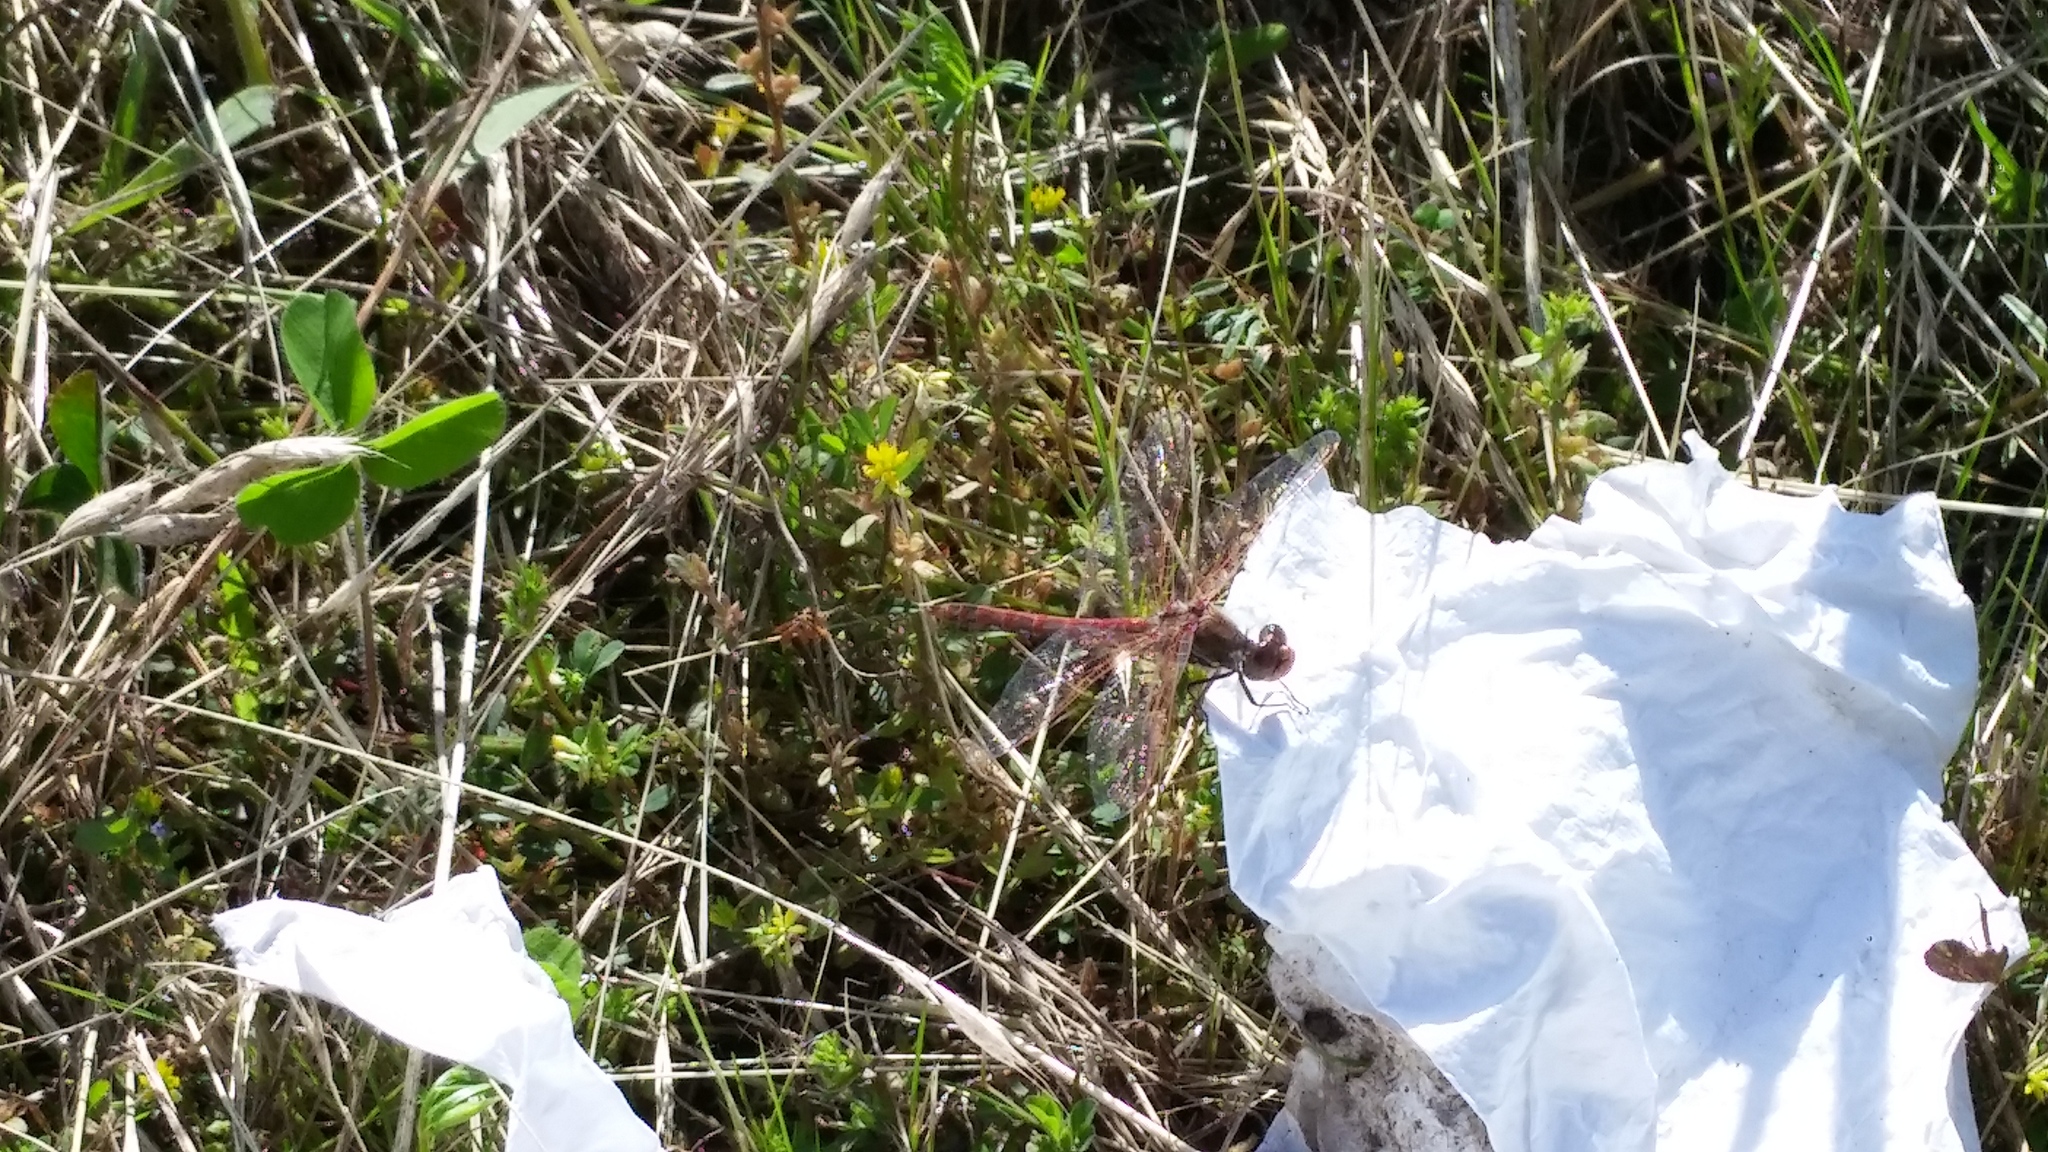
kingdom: Animalia
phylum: Arthropoda
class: Insecta
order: Odonata
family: Libellulidae
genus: Sympetrum
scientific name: Sympetrum corruptum
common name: Variegated meadowhawk
